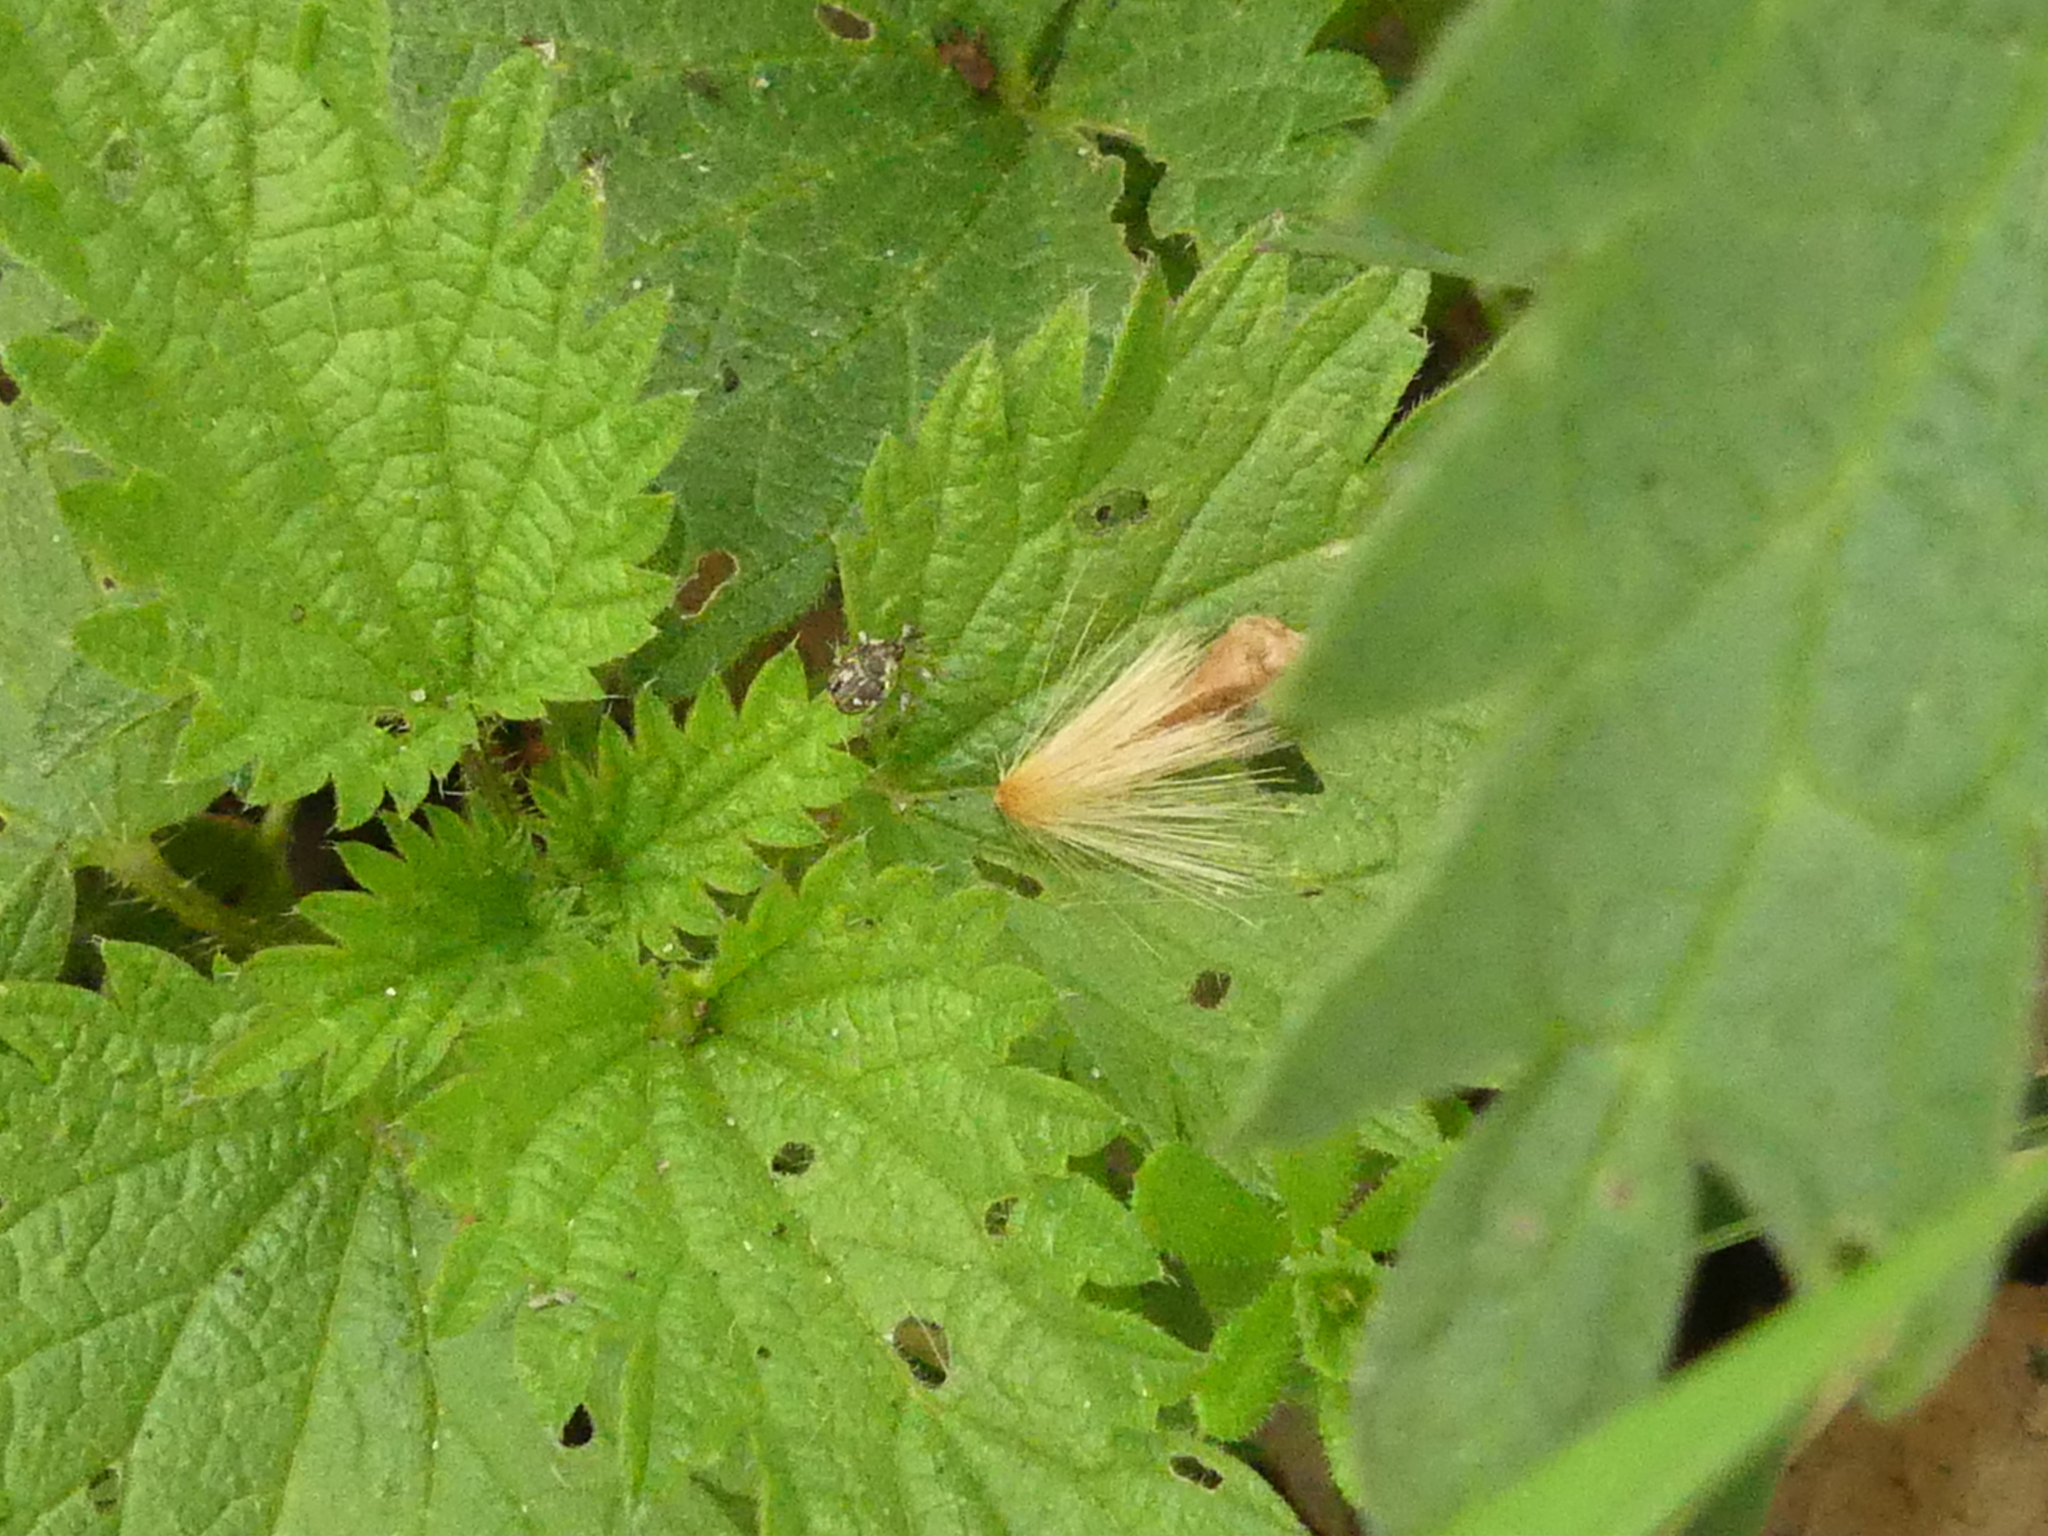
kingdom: Animalia
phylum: Arthropoda
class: Insecta
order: Coleoptera
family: Curculionidae
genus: Nedyus
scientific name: Nedyus quadrimaculatus
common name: Small nettle weevil
